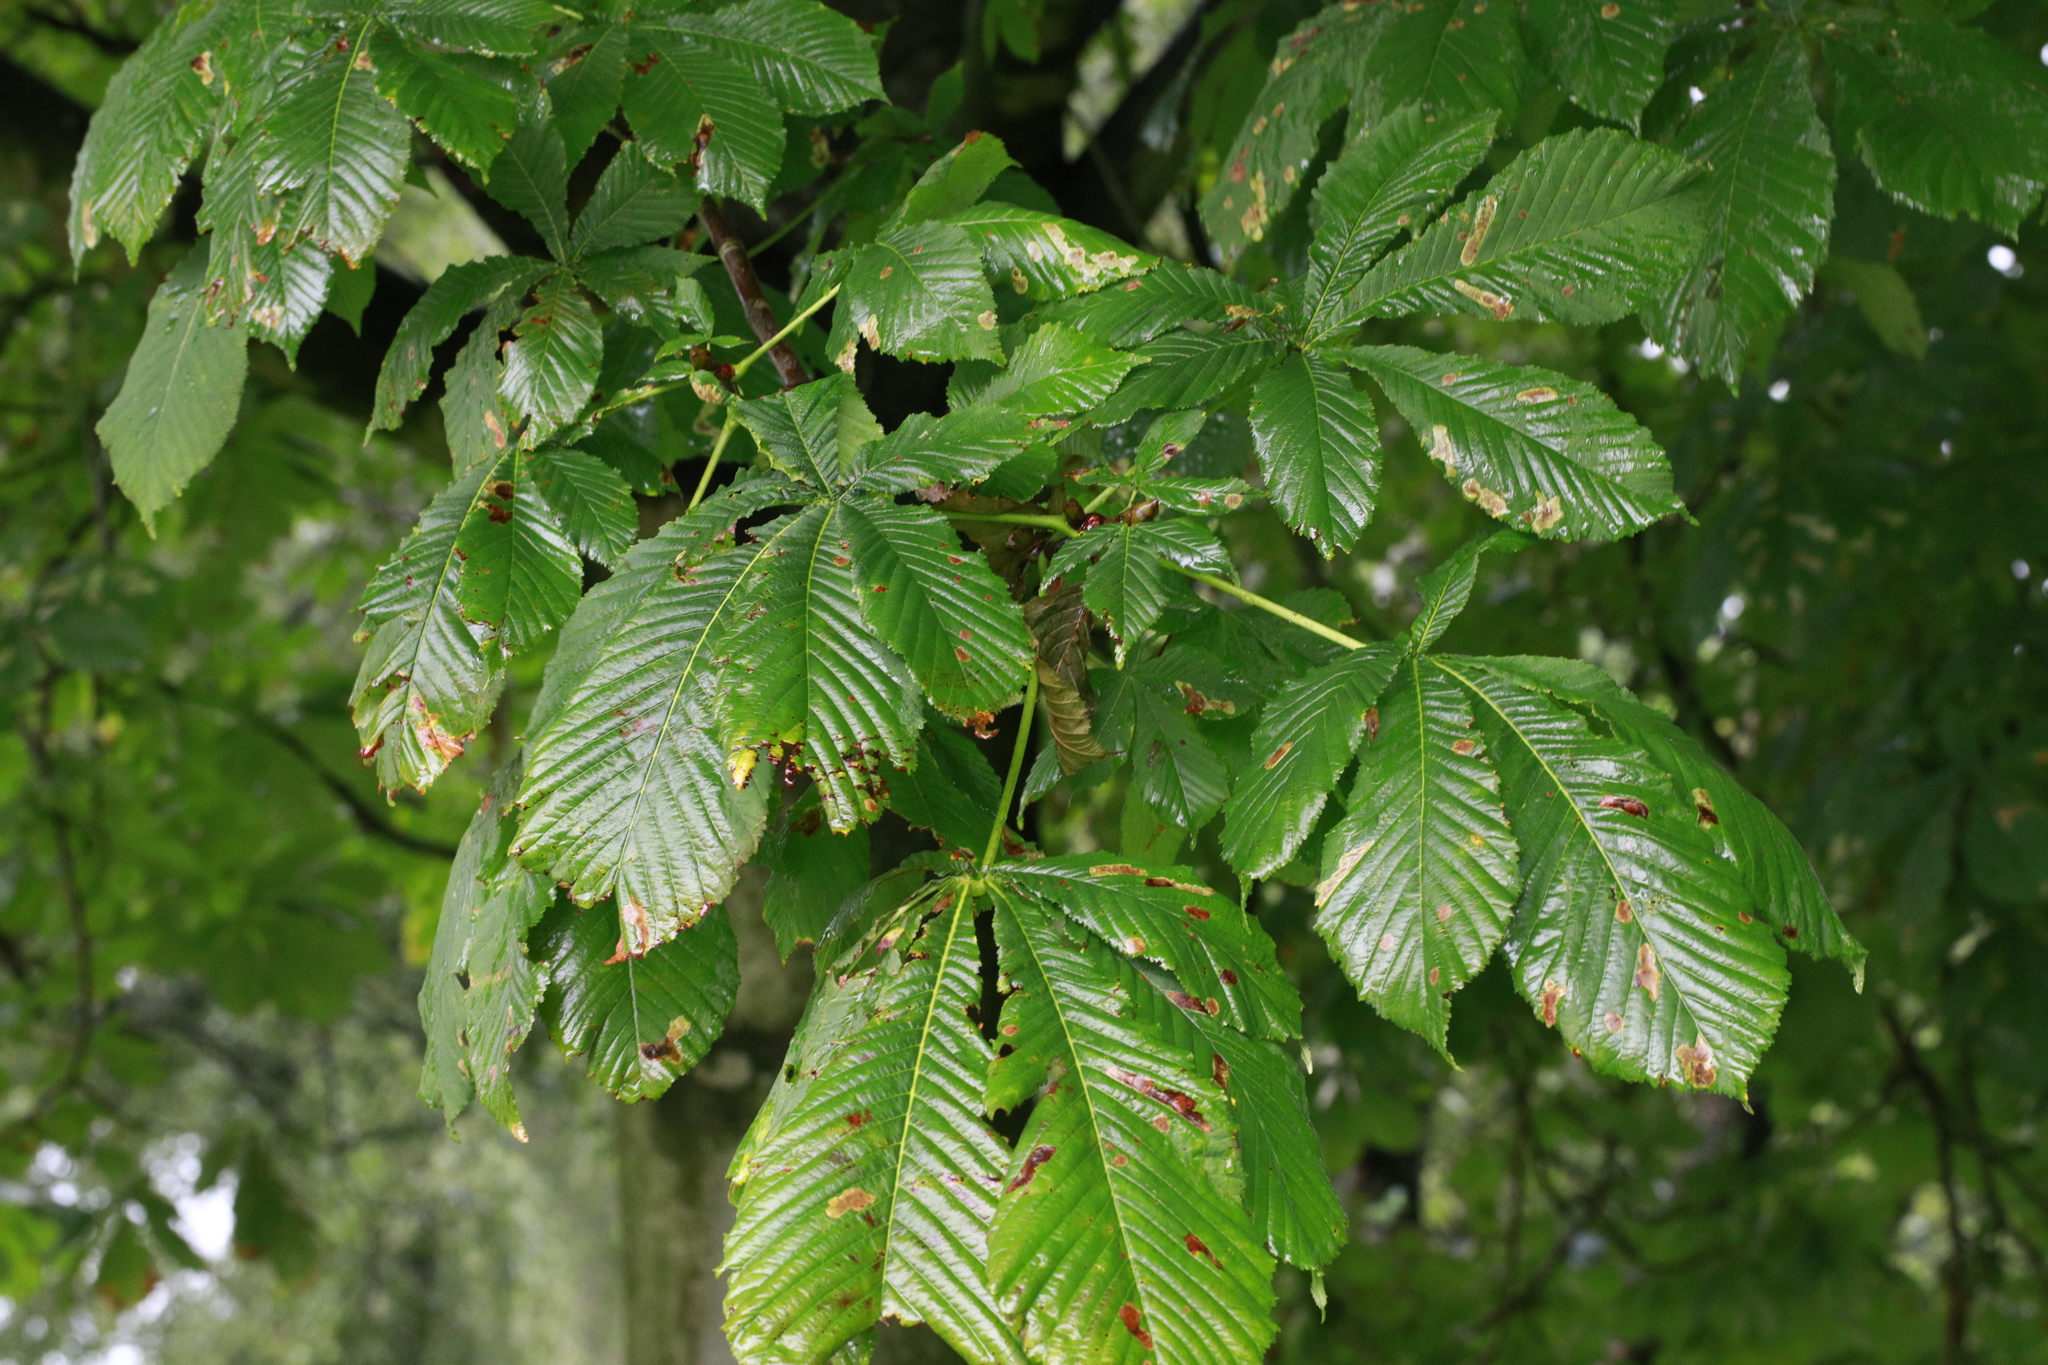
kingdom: Plantae
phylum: Tracheophyta
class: Magnoliopsida
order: Sapindales
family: Sapindaceae
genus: Aesculus
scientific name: Aesculus hippocastanum
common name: Horse-chestnut
